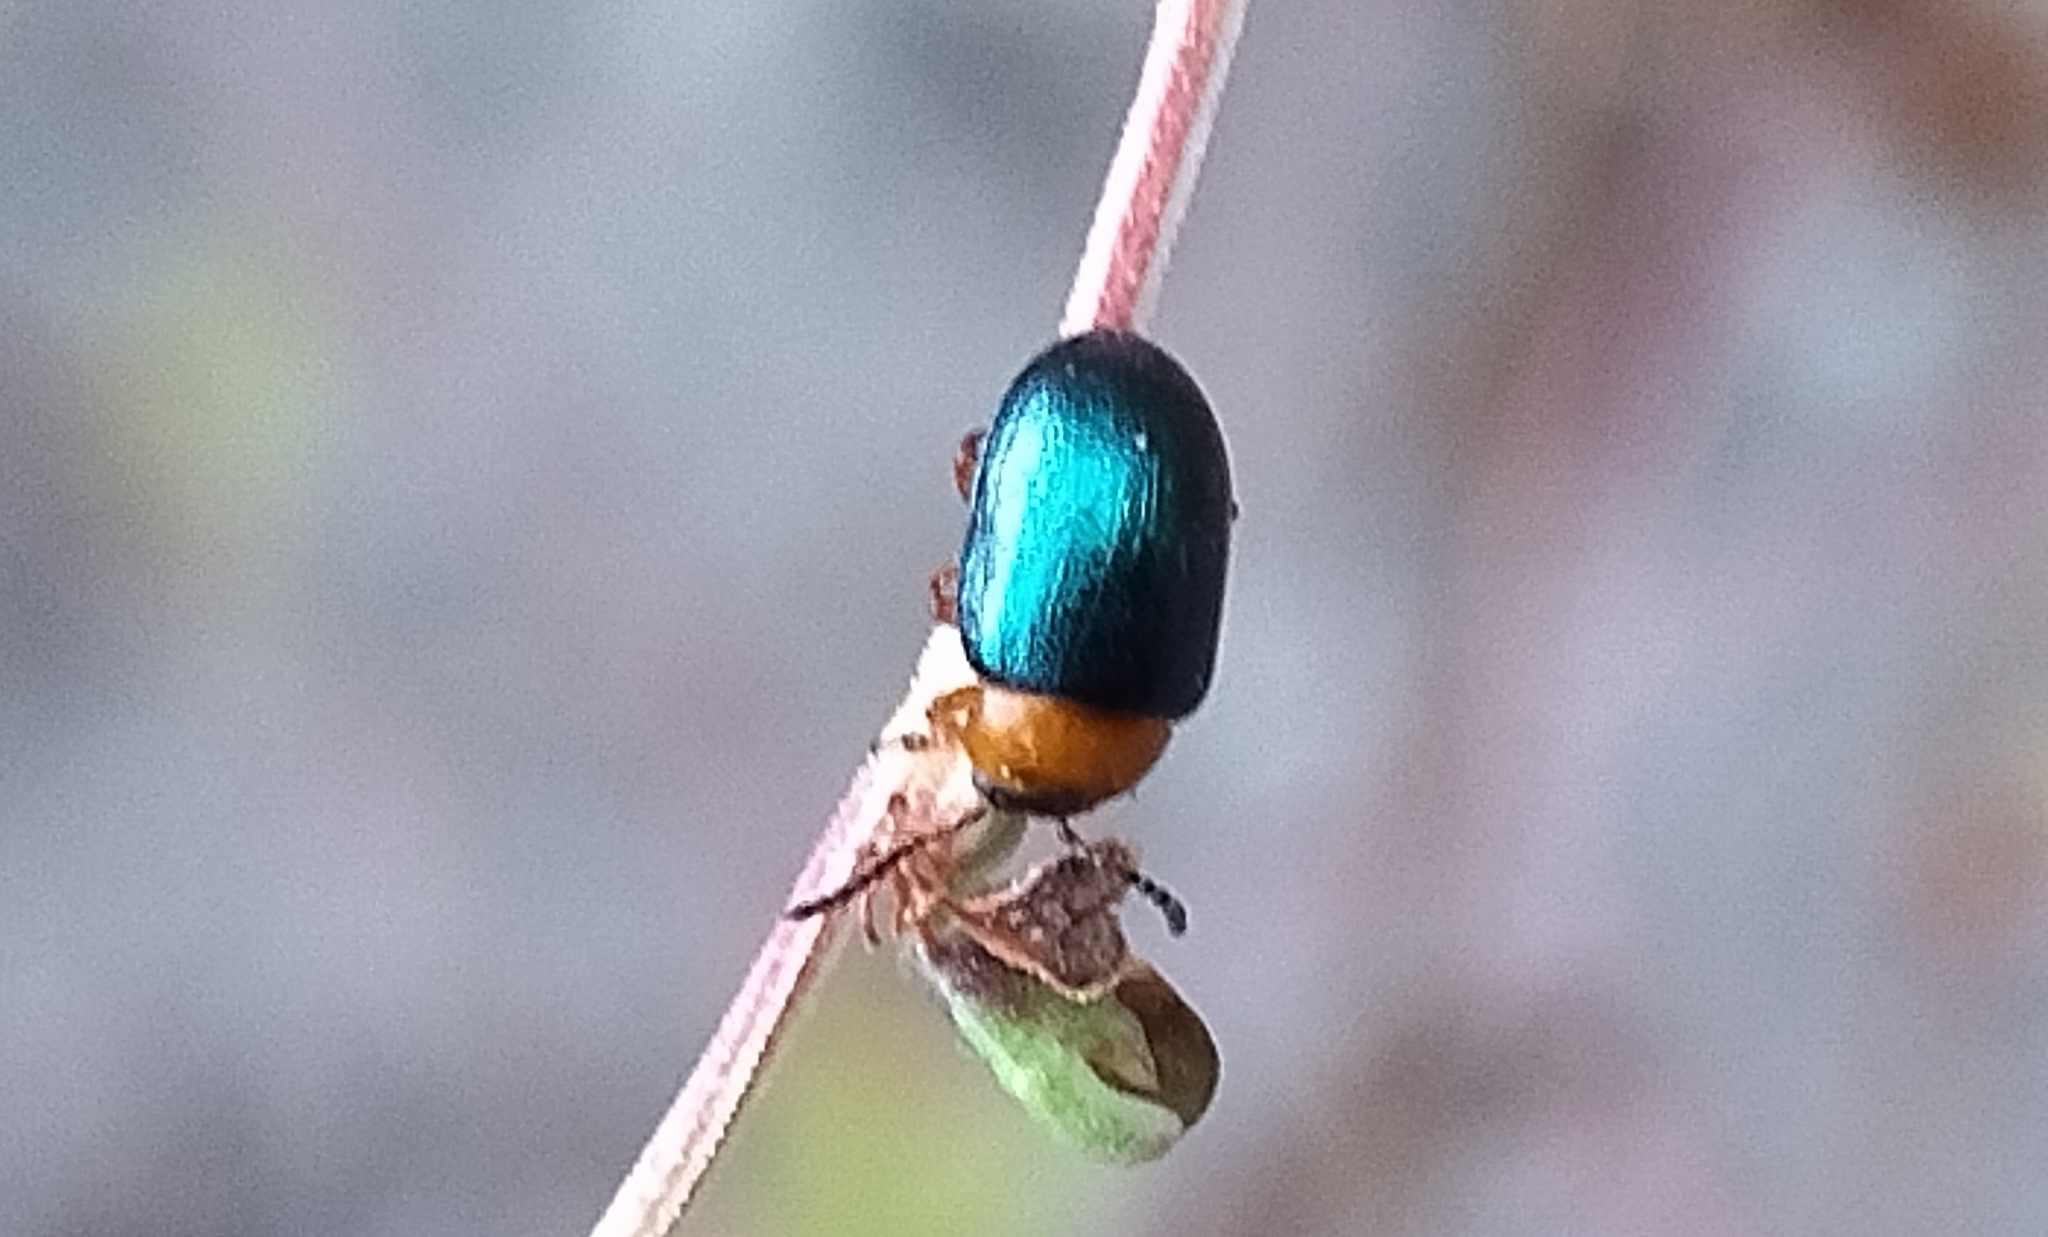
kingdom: Animalia
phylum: Arthropoda
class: Insecta
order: Coleoptera
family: Chrysomelidae
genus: Gastrophysa
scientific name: Gastrophysa polygoni
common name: Knotweed leaf beetle
